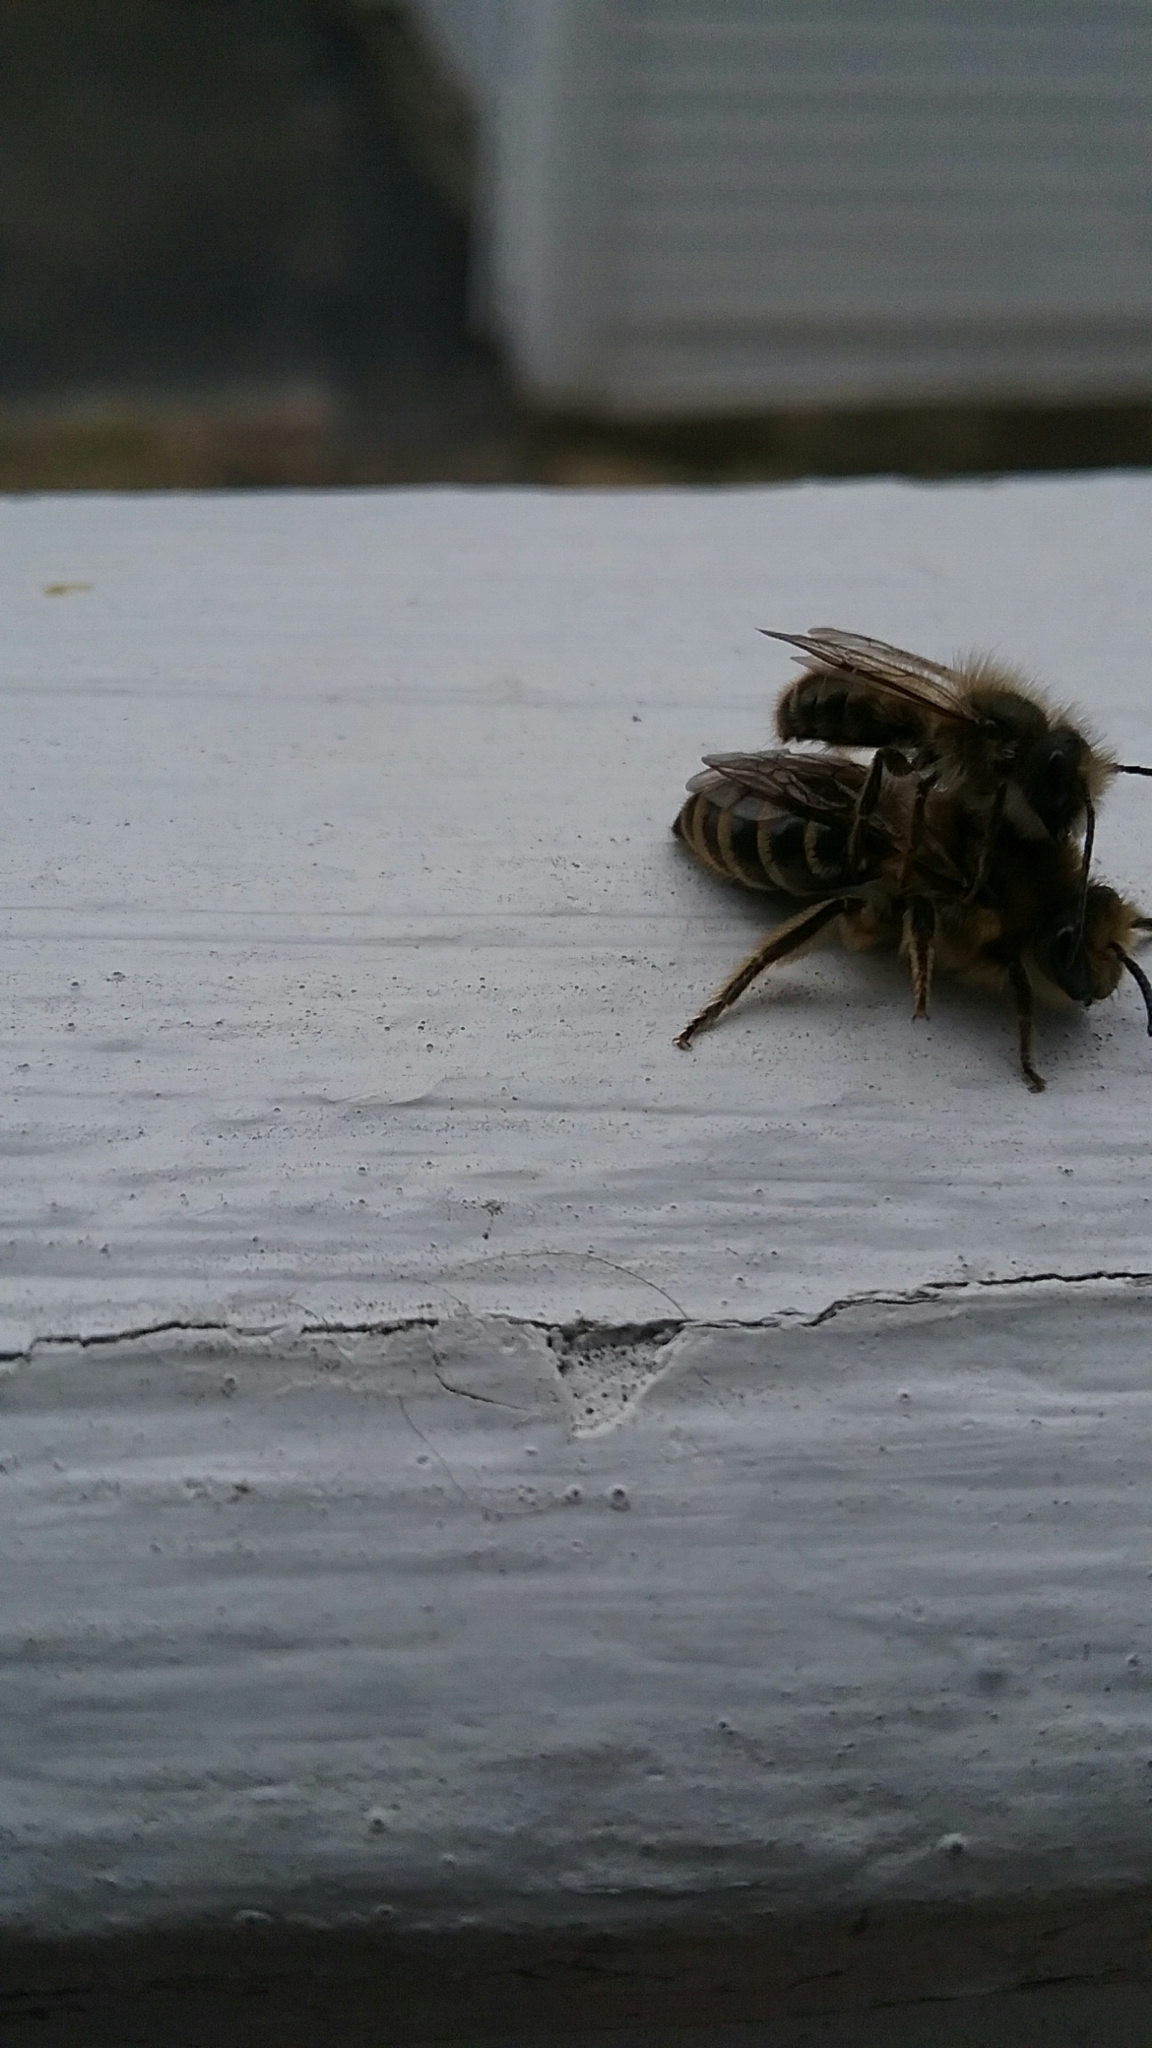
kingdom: Animalia
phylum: Arthropoda
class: Insecta
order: Hymenoptera
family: Colletidae
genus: Colletes
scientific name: Colletes inaequalis
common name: Unequal cellophane bee
